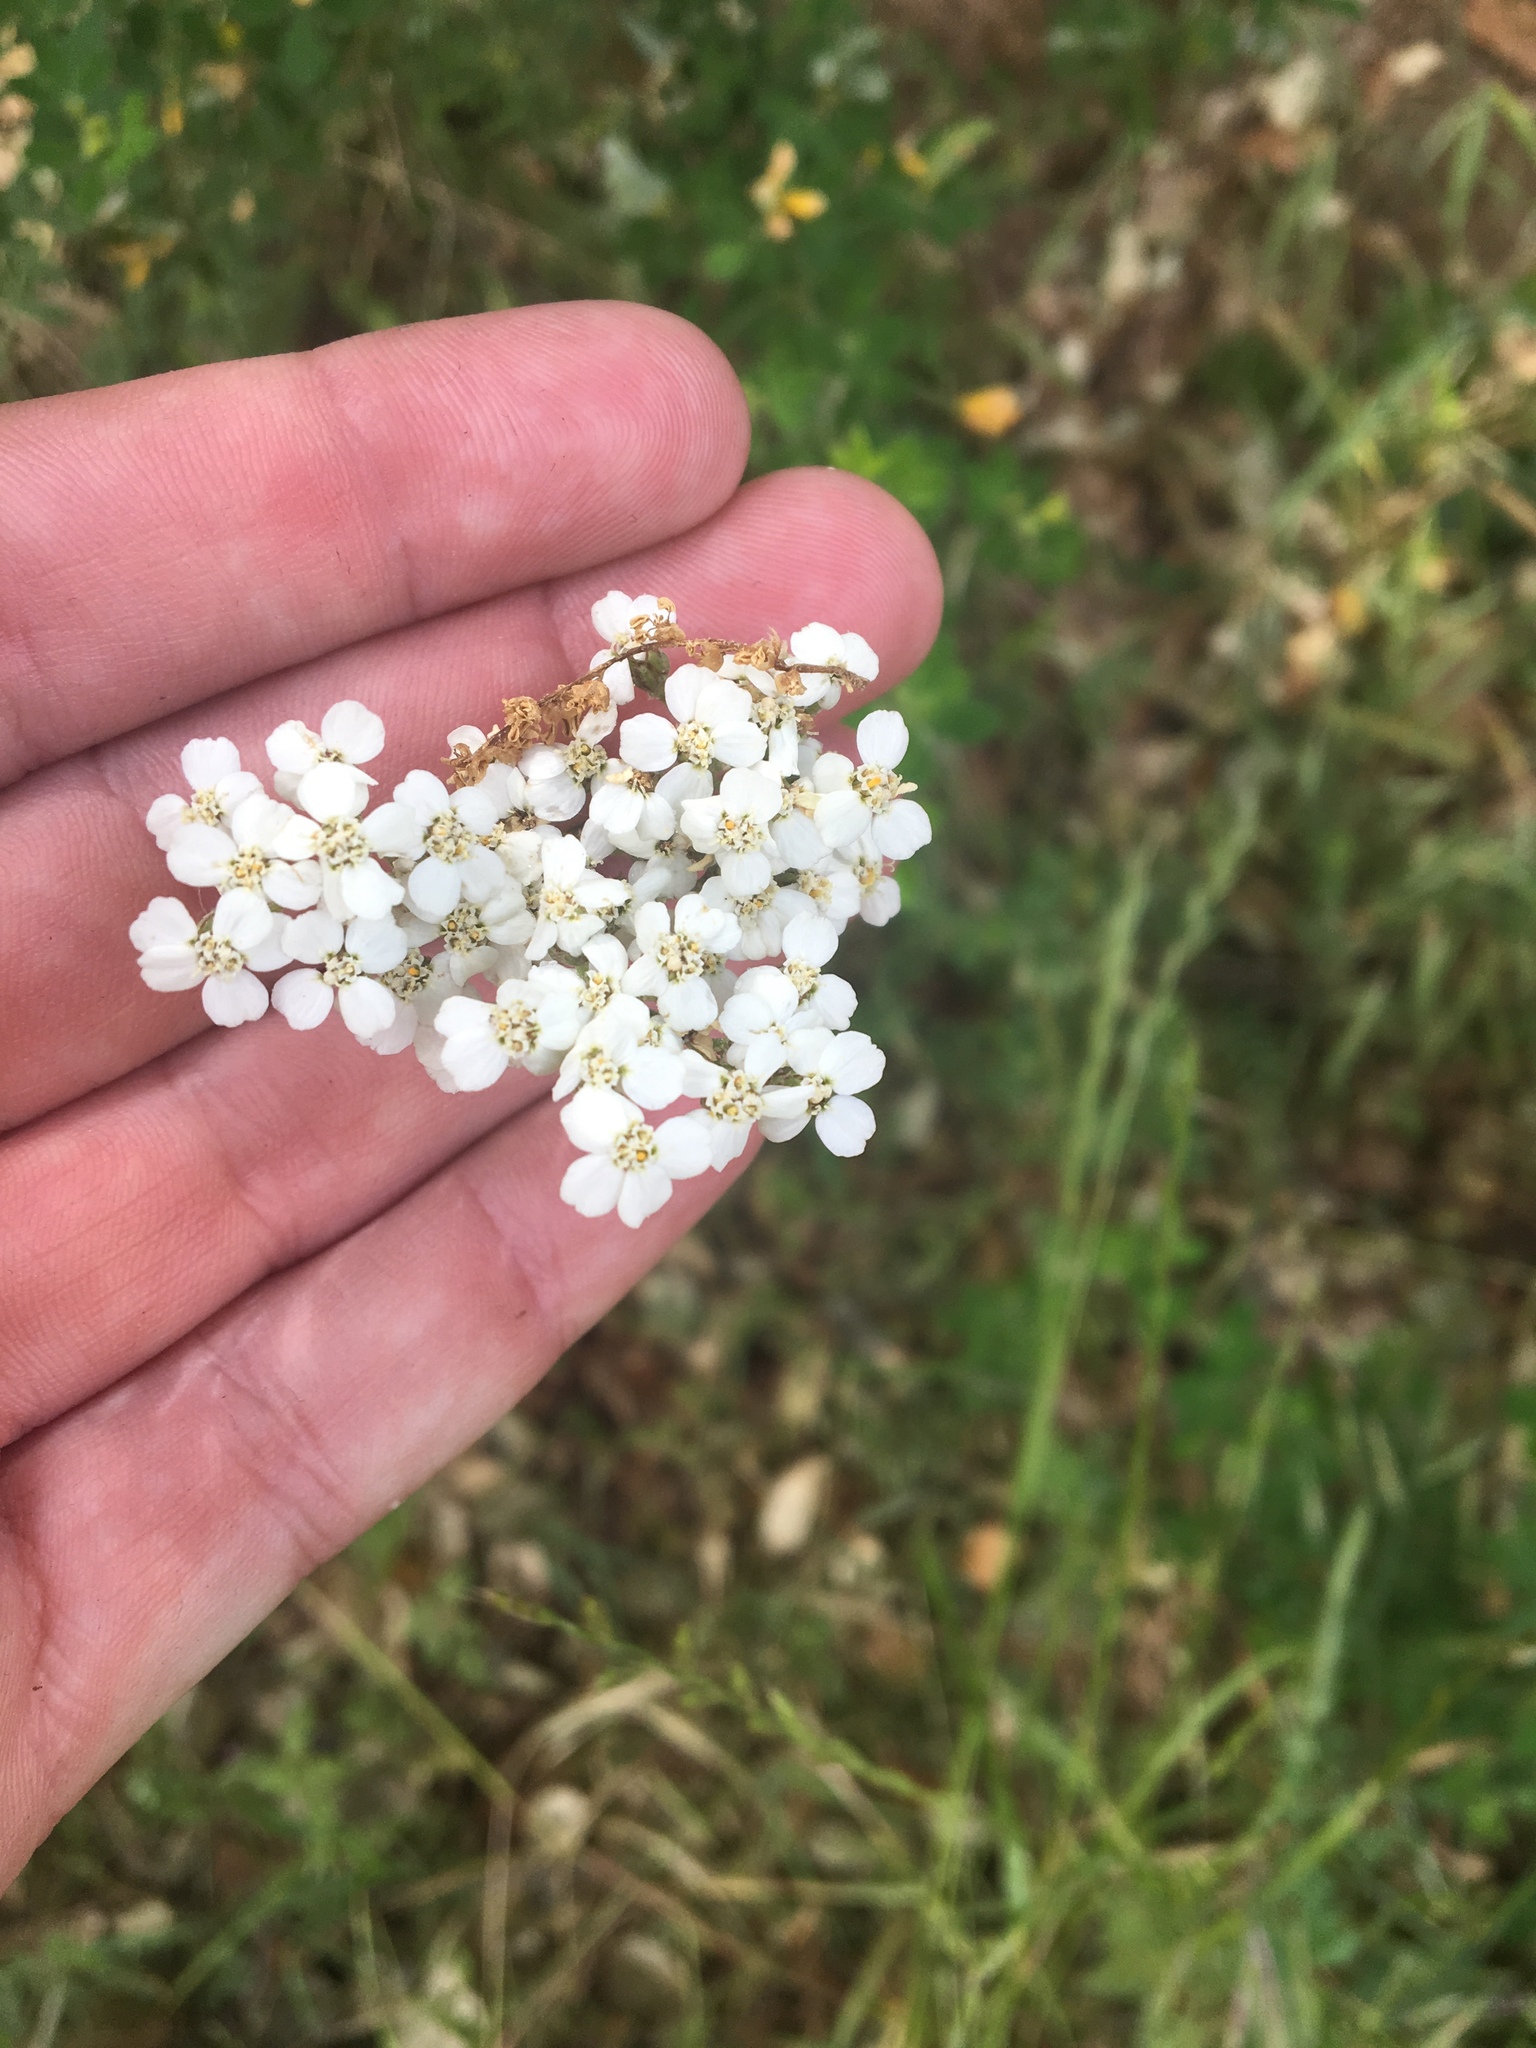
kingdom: Plantae
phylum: Tracheophyta
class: Magnoliopsida
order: Asterales
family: Asteraceae
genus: Achillea
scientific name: Achillea millefolium
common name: Yarrow
